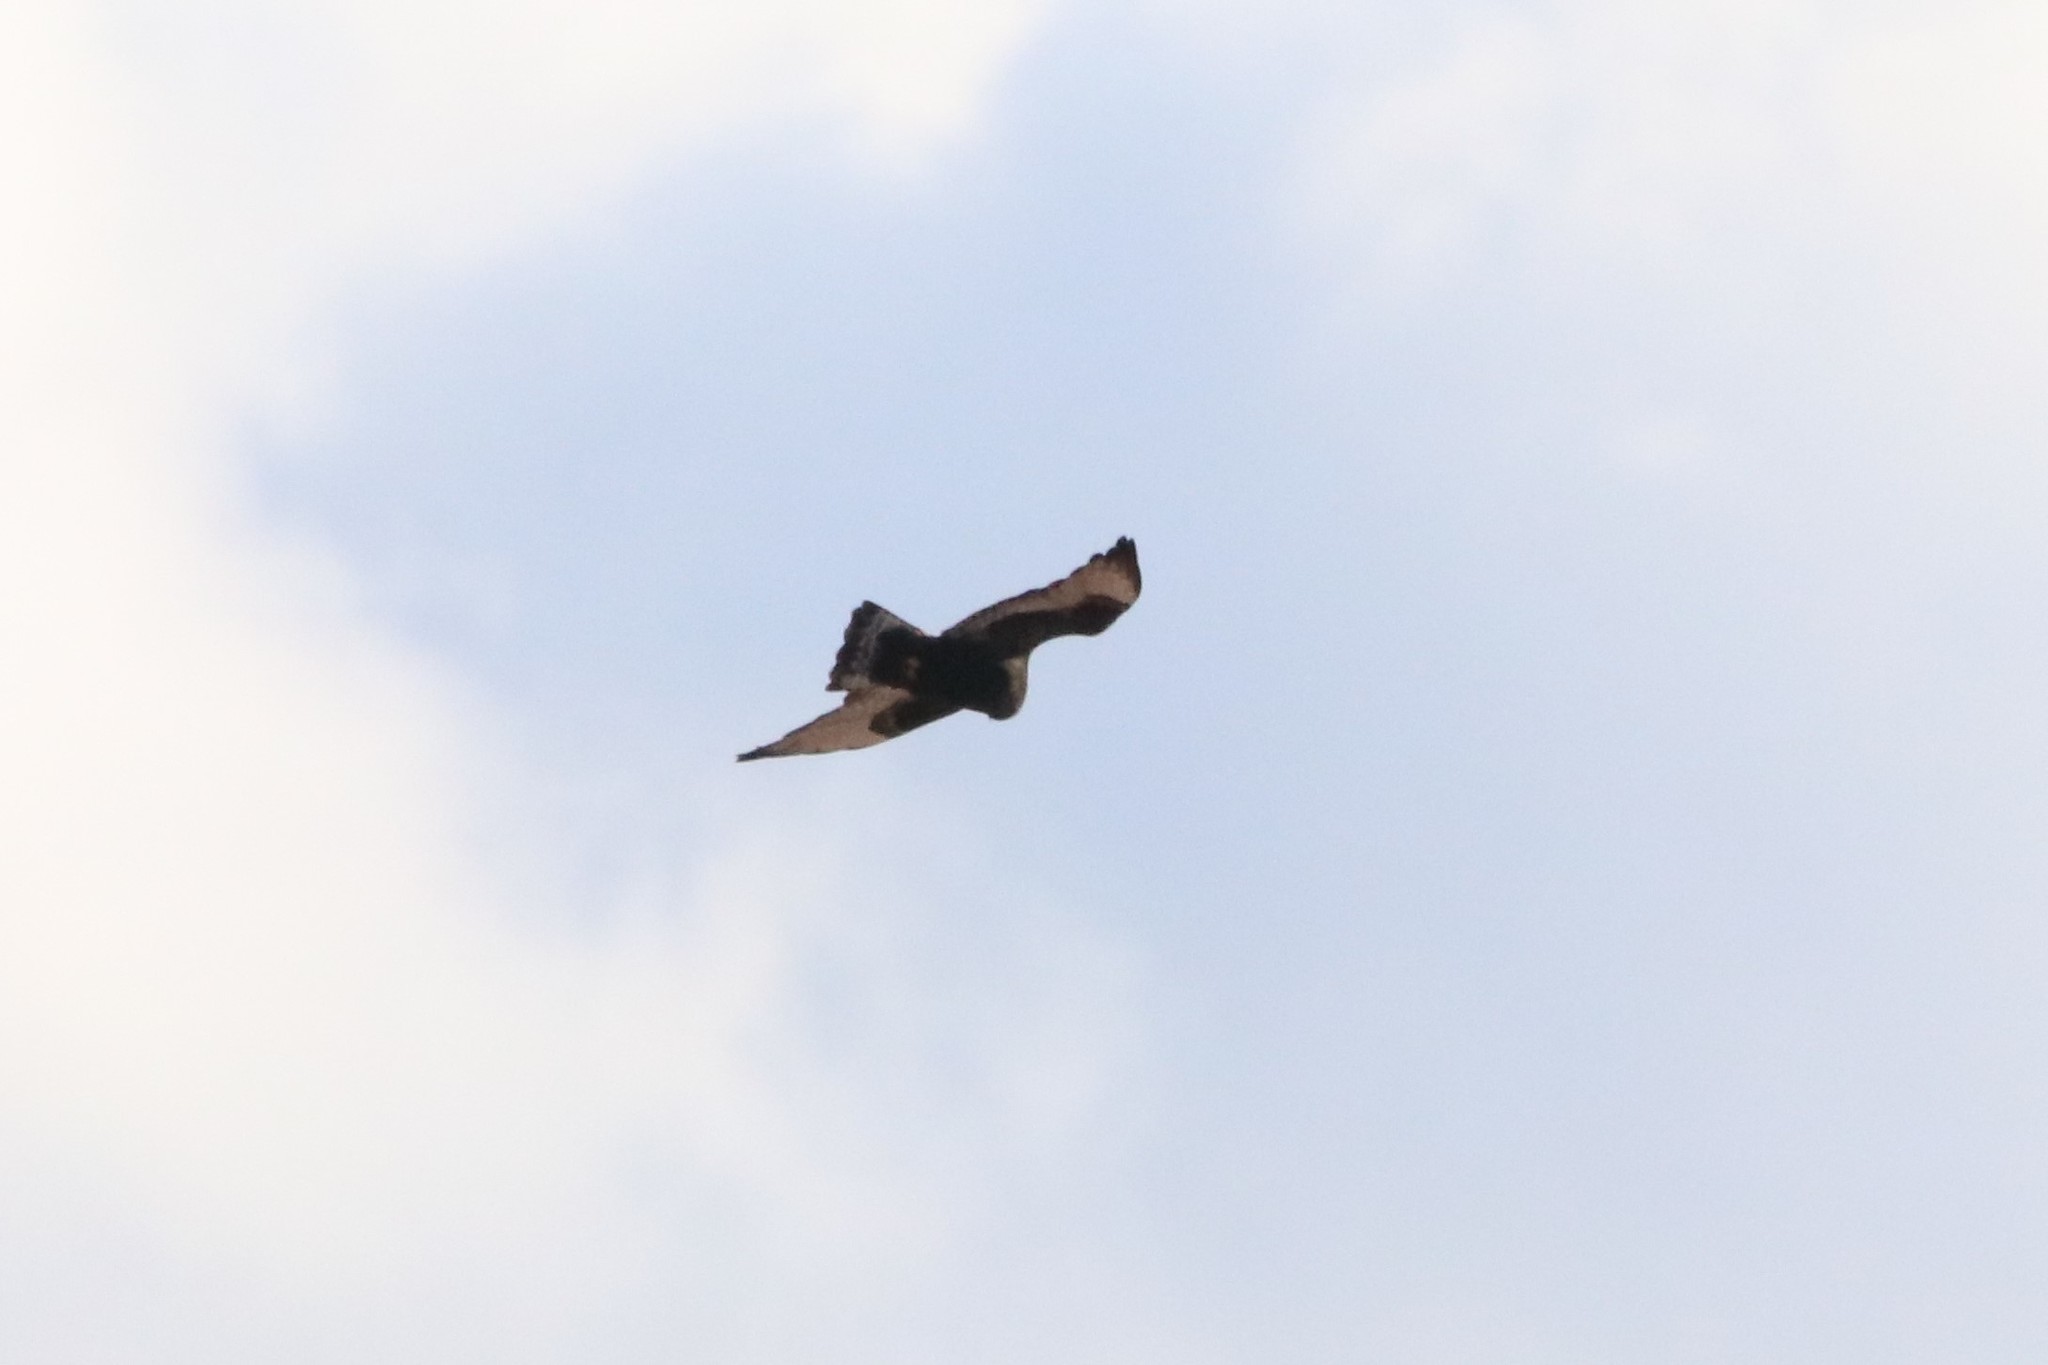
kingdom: Animalia
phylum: Chordata
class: Aves
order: Accipitriformes
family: Accipitridae
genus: Buteo
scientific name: Buteo lagopus
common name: Rough-legged buzzard
